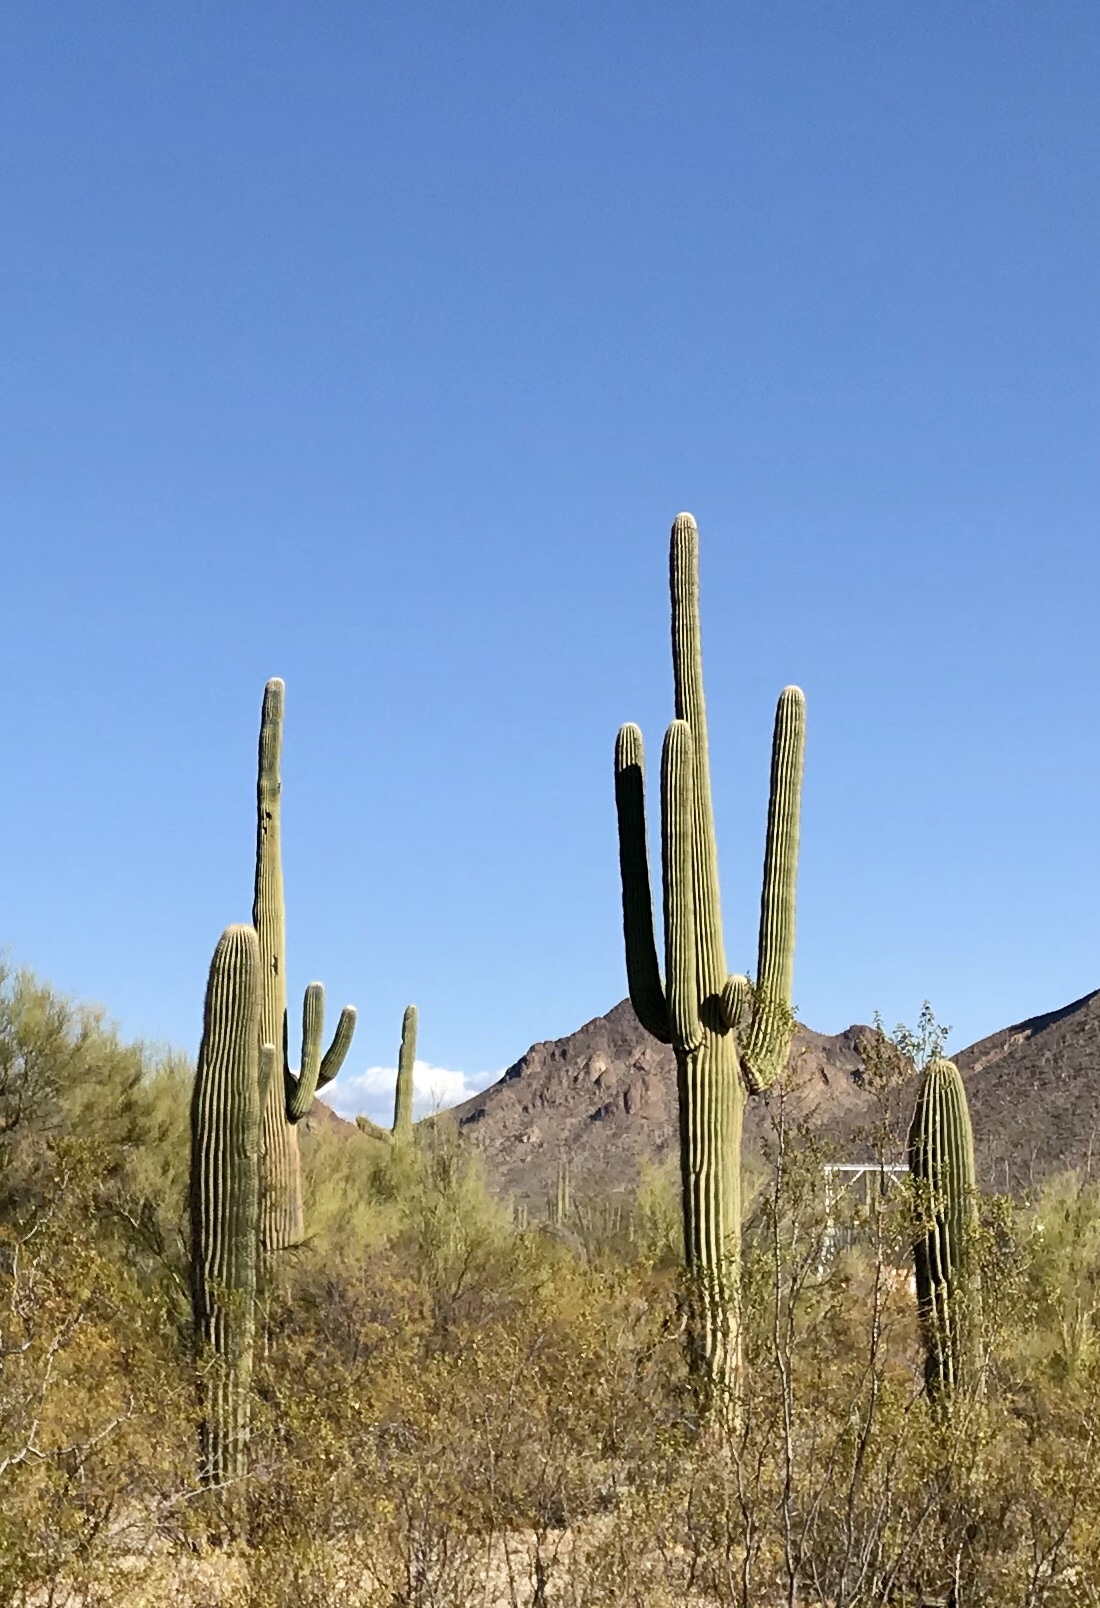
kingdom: Plantae
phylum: Tracheophyta
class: Magnoliopsida
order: Caryophyllales
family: Cactaceae
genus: Carnegiea
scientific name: Carnegiea gigantea
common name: Saguaro
